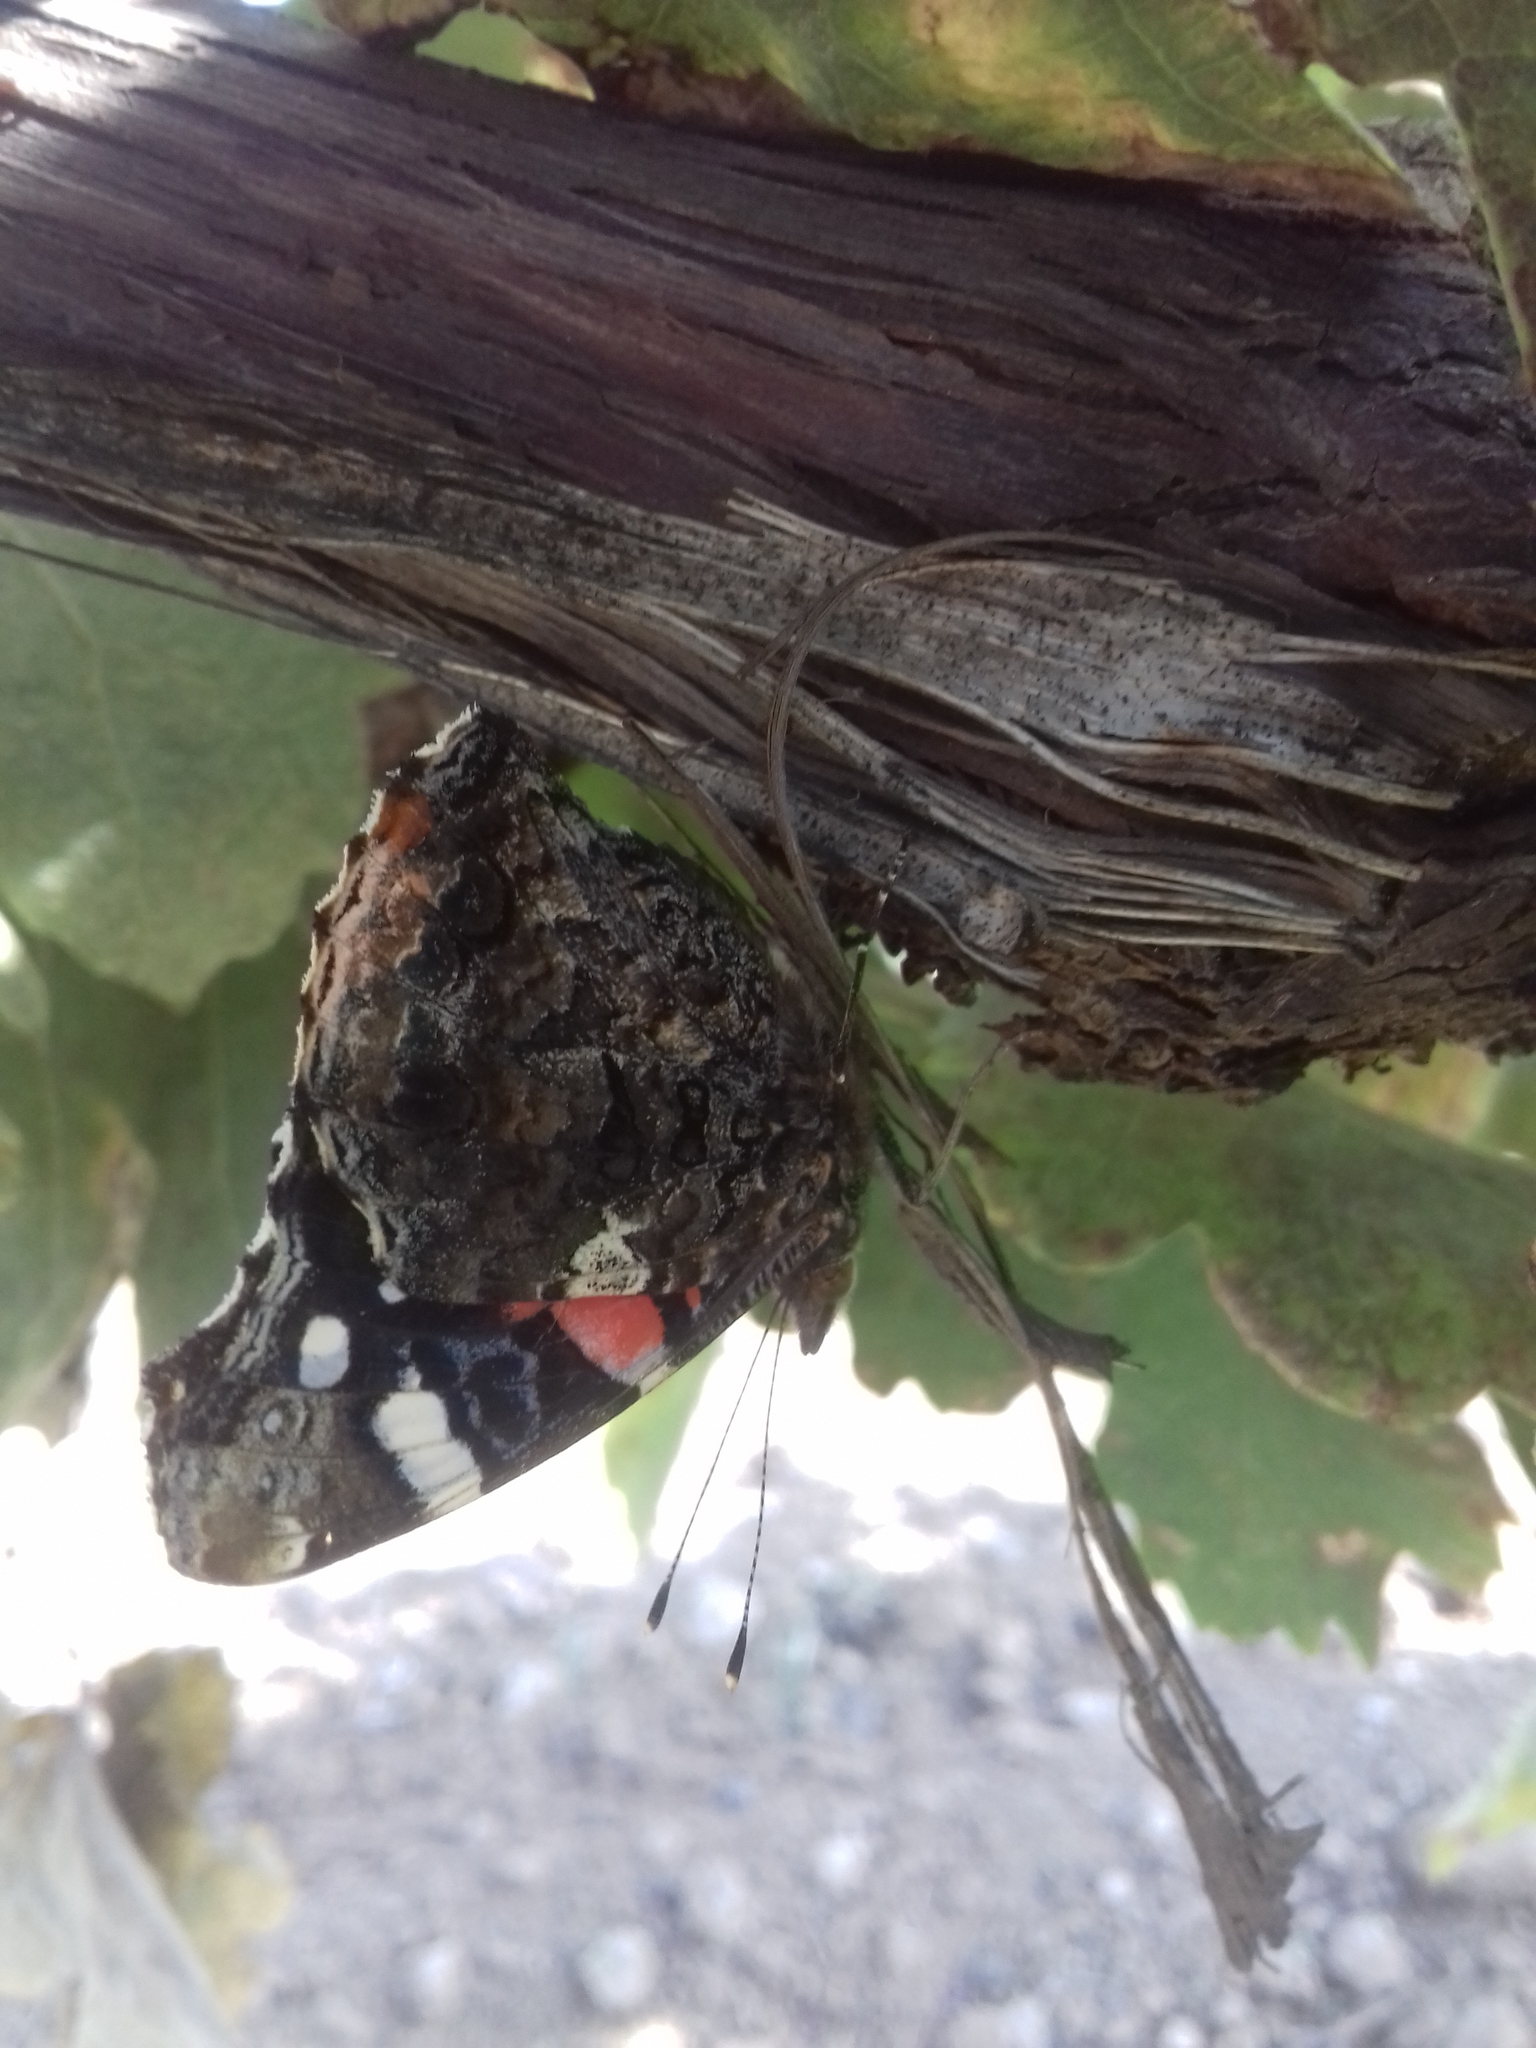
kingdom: Animalia
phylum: Arthropoda
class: Insecta
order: Lepidoptera
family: Nymphalidae
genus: Vanessa
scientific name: Vanessa atalanta
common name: Red admiral
